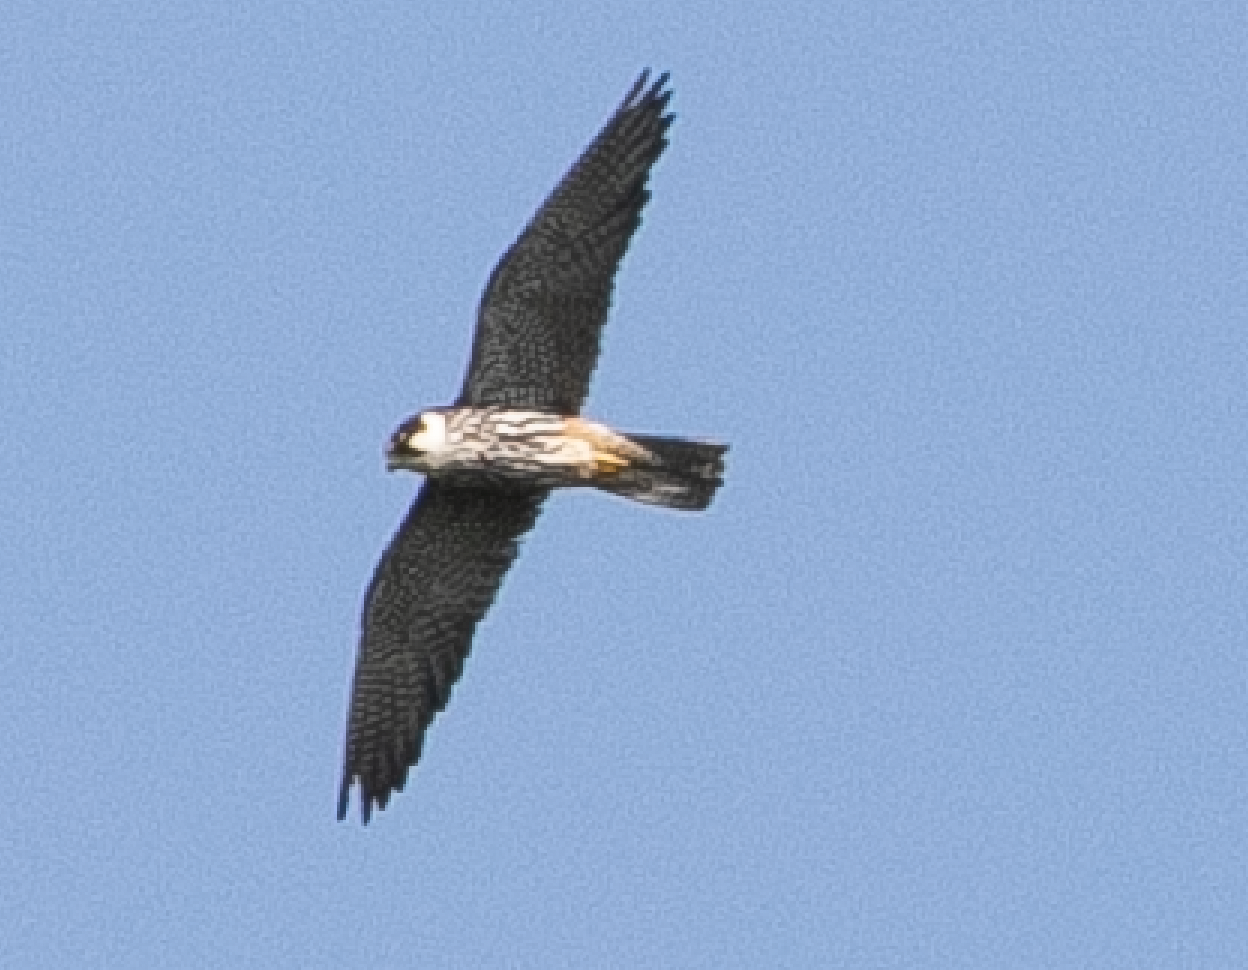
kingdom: Animalia
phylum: Chordata
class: Aves
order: Falconiformes
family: Falconidae
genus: Falco
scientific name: Falco subbuteo
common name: Eurasian hobby
